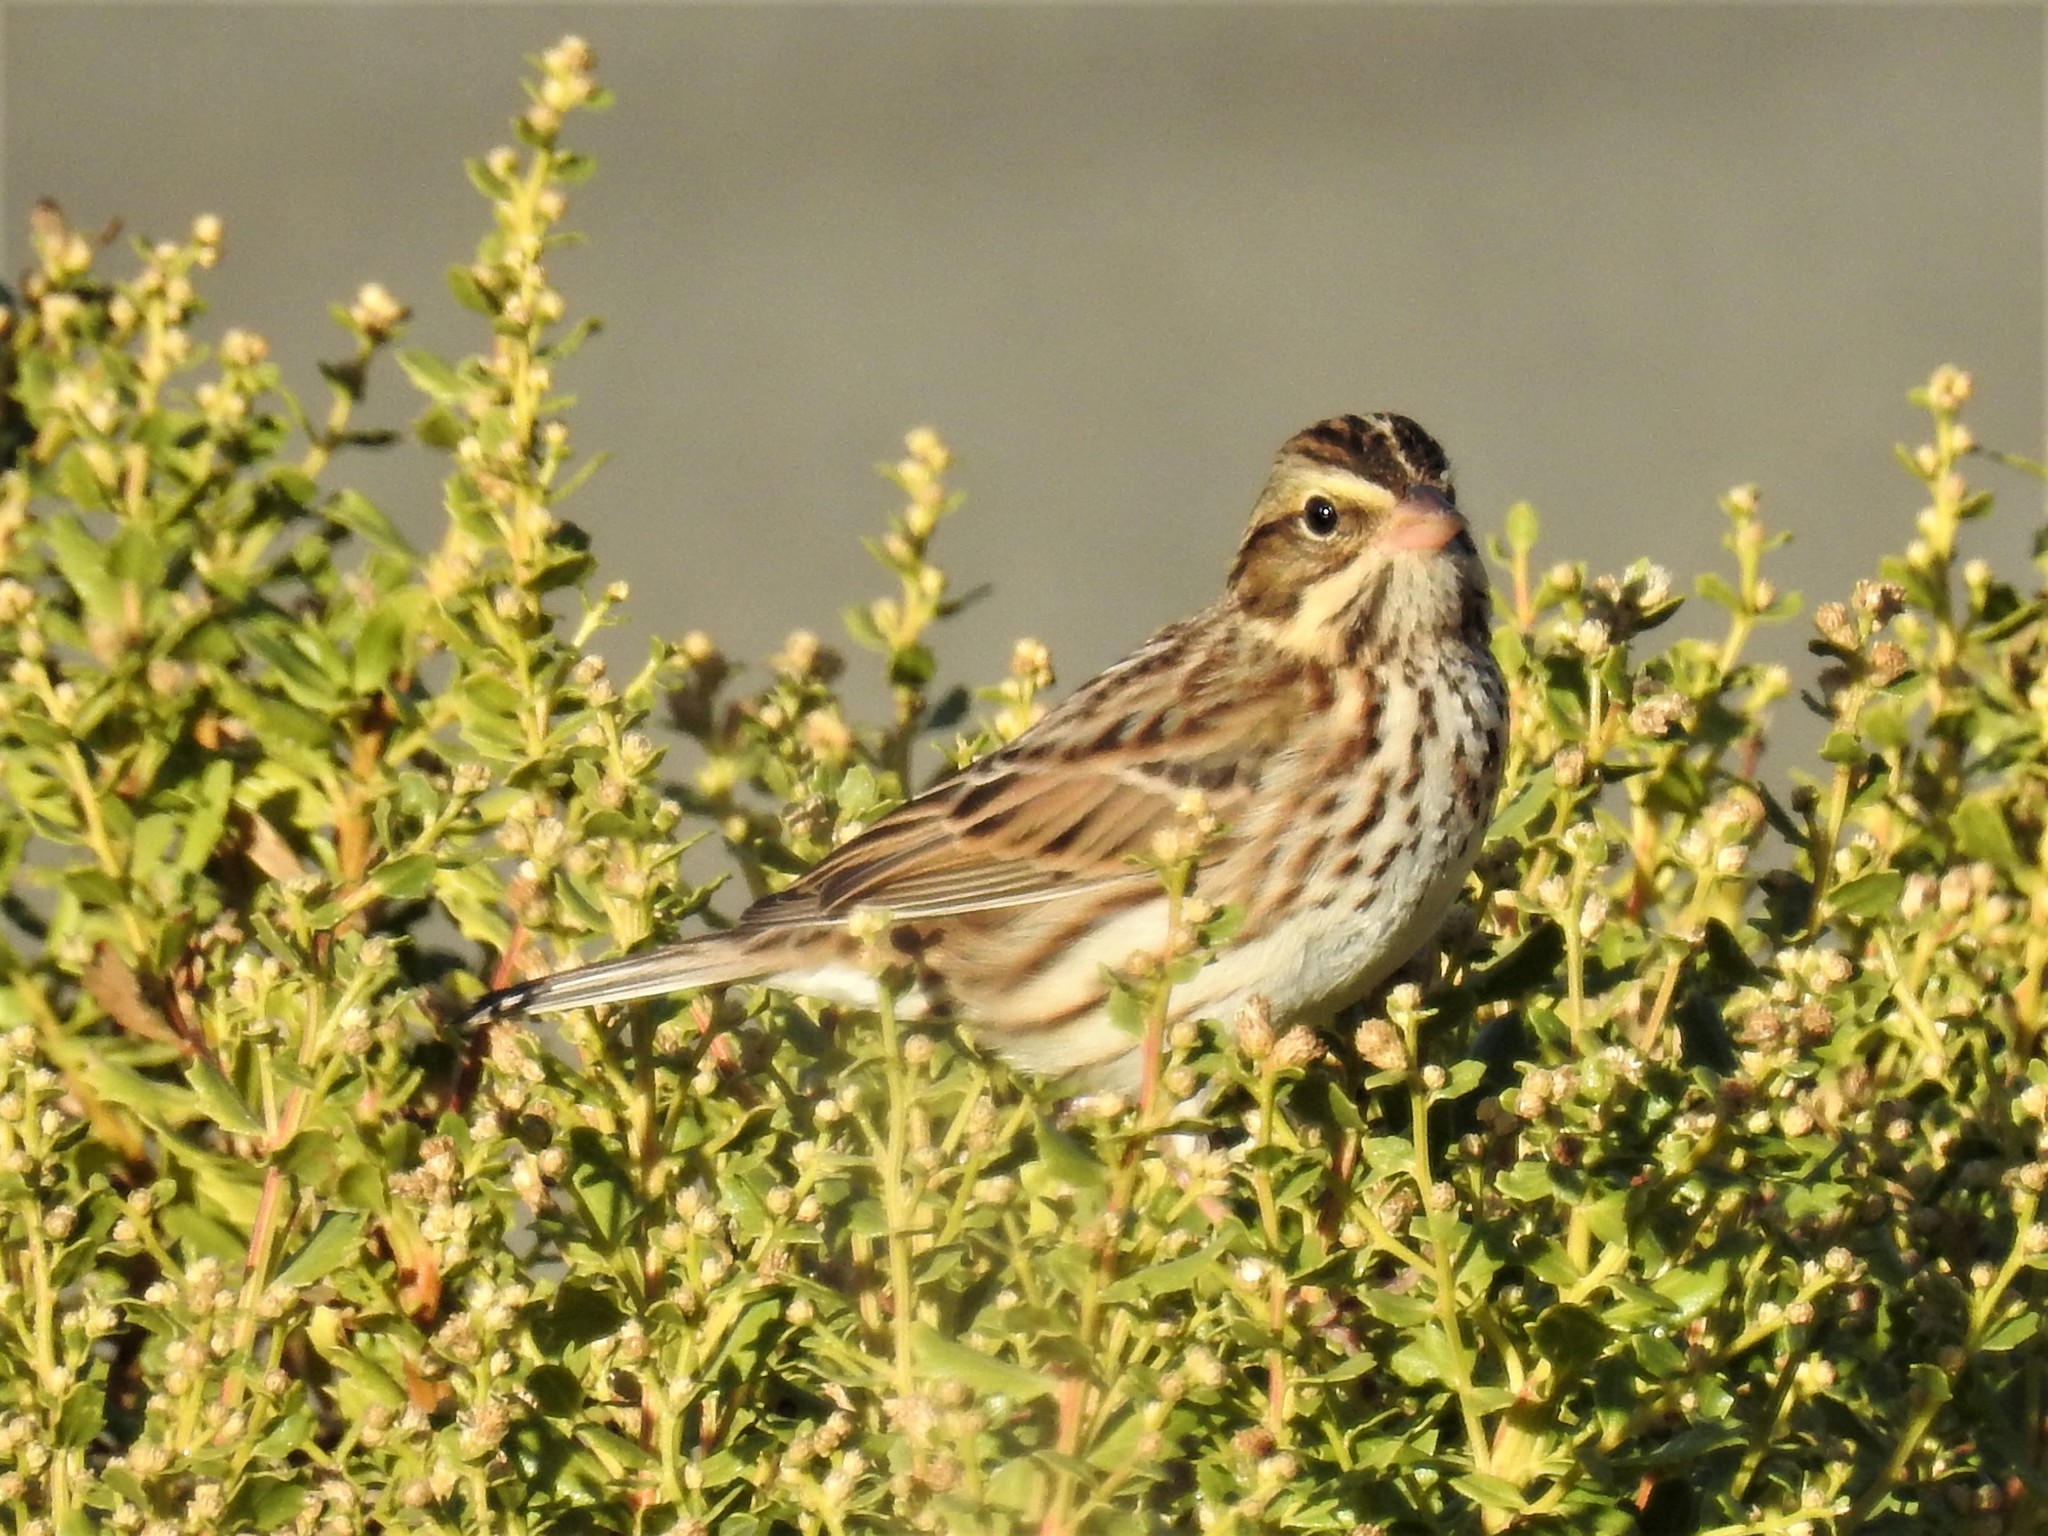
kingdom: Animalia
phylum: Chordata
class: Aves
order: Passeriformes
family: Passerellidae
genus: Passerculus
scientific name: Passerculus sandwichensis
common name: Savannah sparrow
